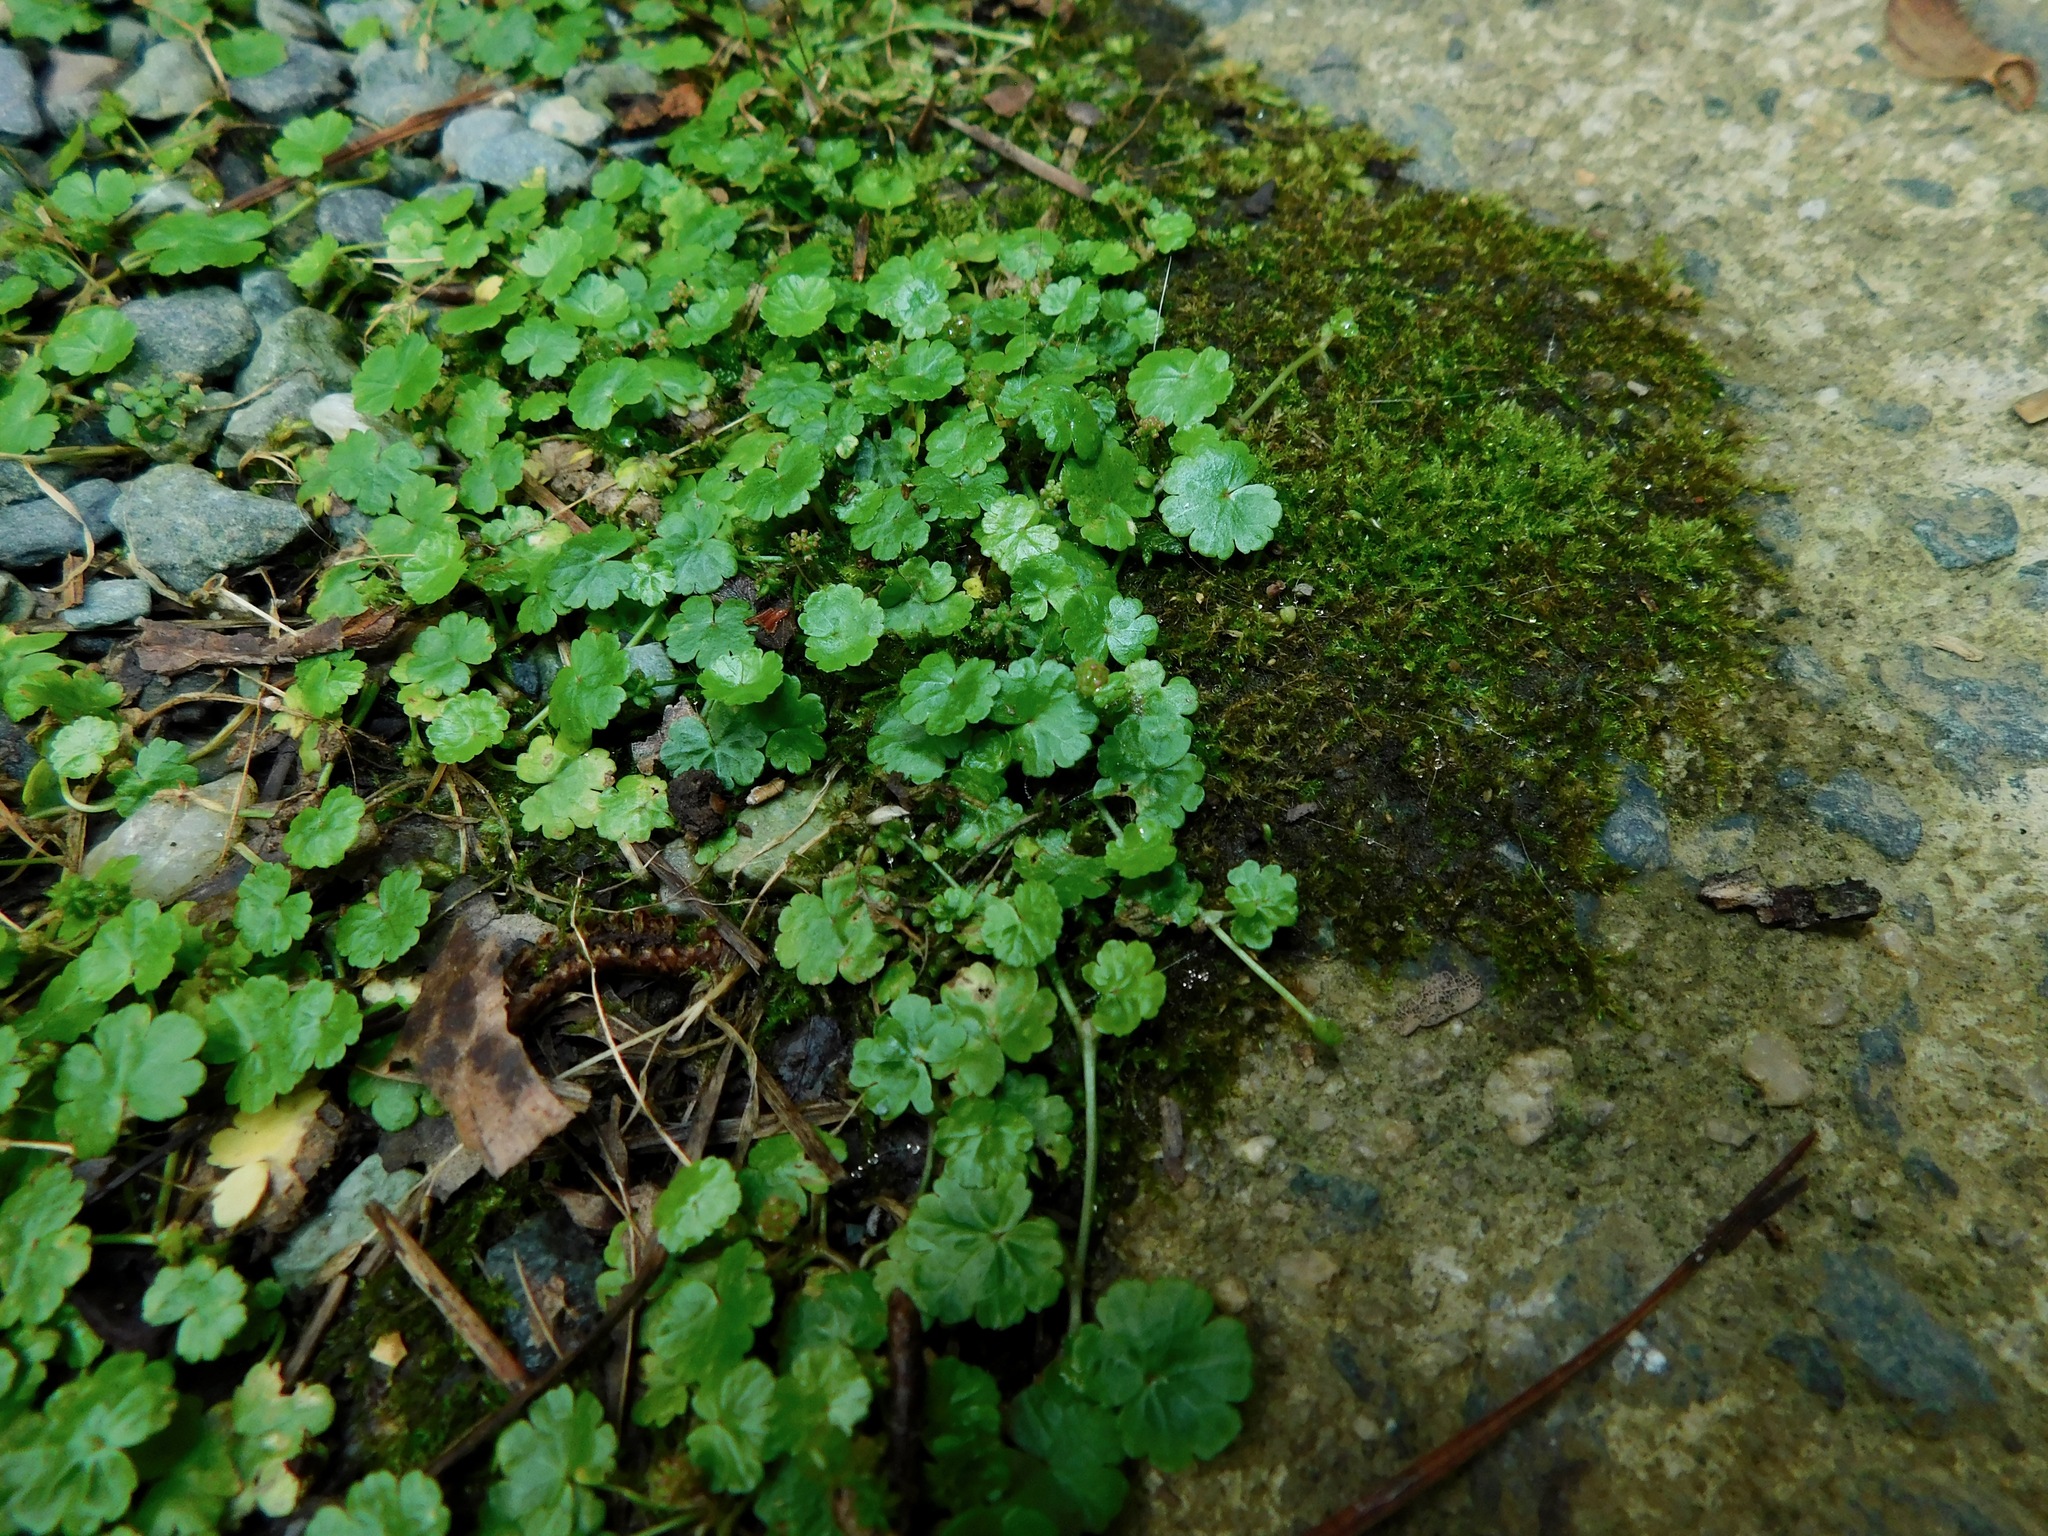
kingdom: Plantae
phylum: Tracheophyta
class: Magnoliopsida
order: Apiales
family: Araliaceae
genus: Hydrocotyle
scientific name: Hydrocotyle sibthorpioides
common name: Lawn marshpennywort
